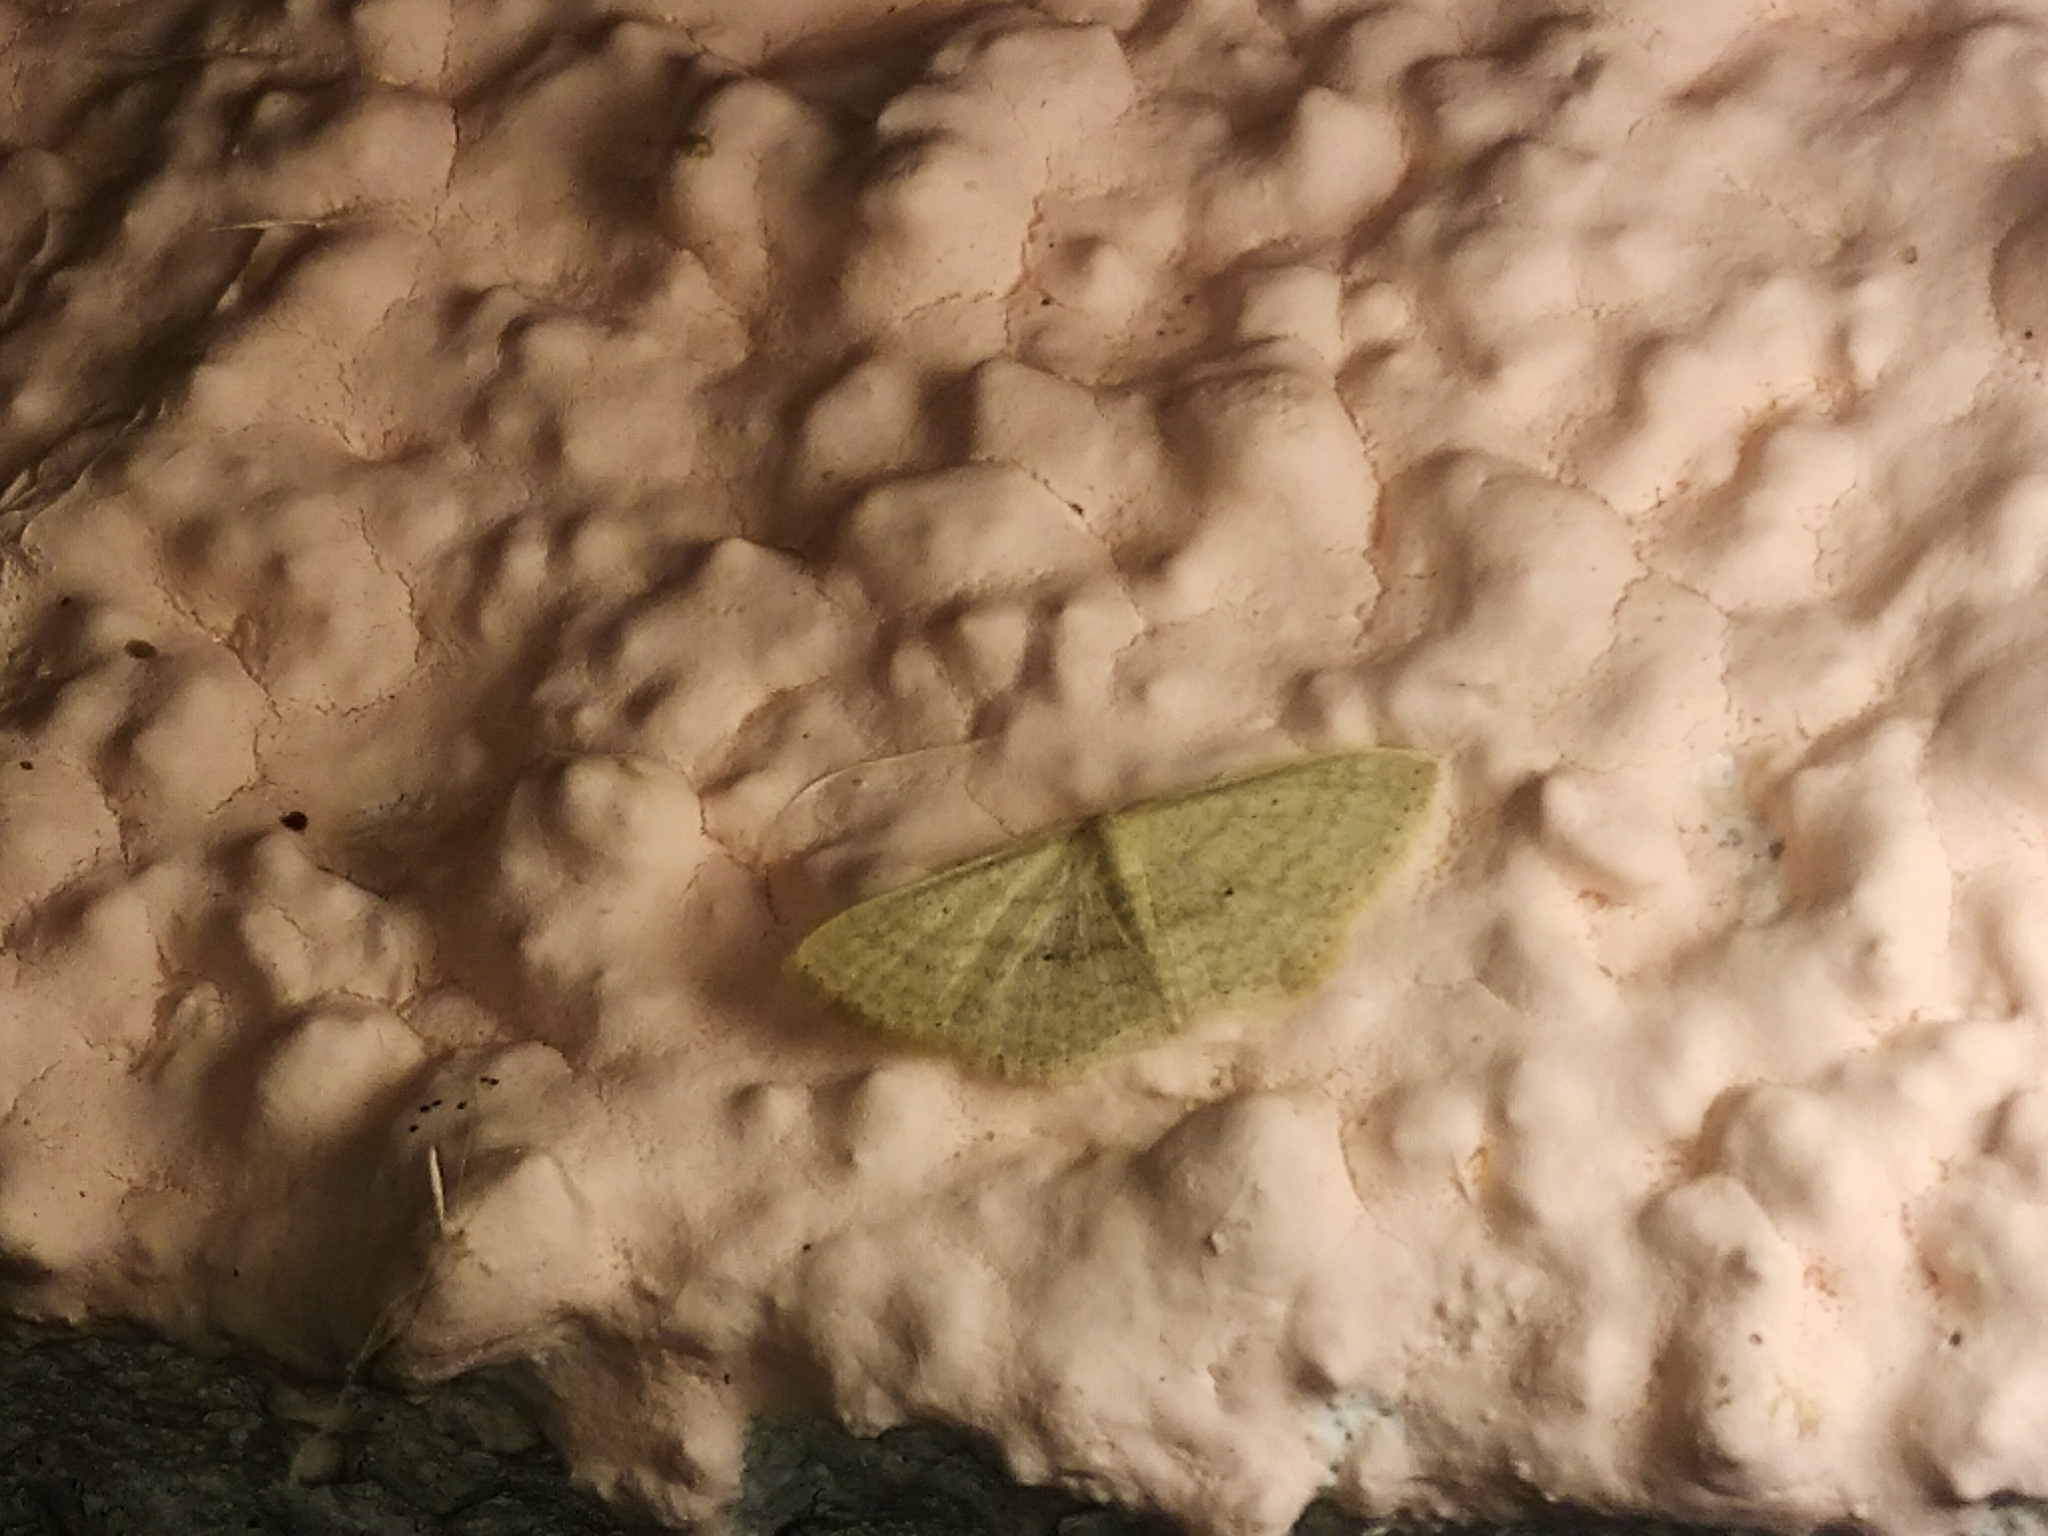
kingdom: Animalia
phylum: Arthropoda
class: Insecta
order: Lepidoptera
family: Geometridae
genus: Scopula
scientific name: Scopula minorata
